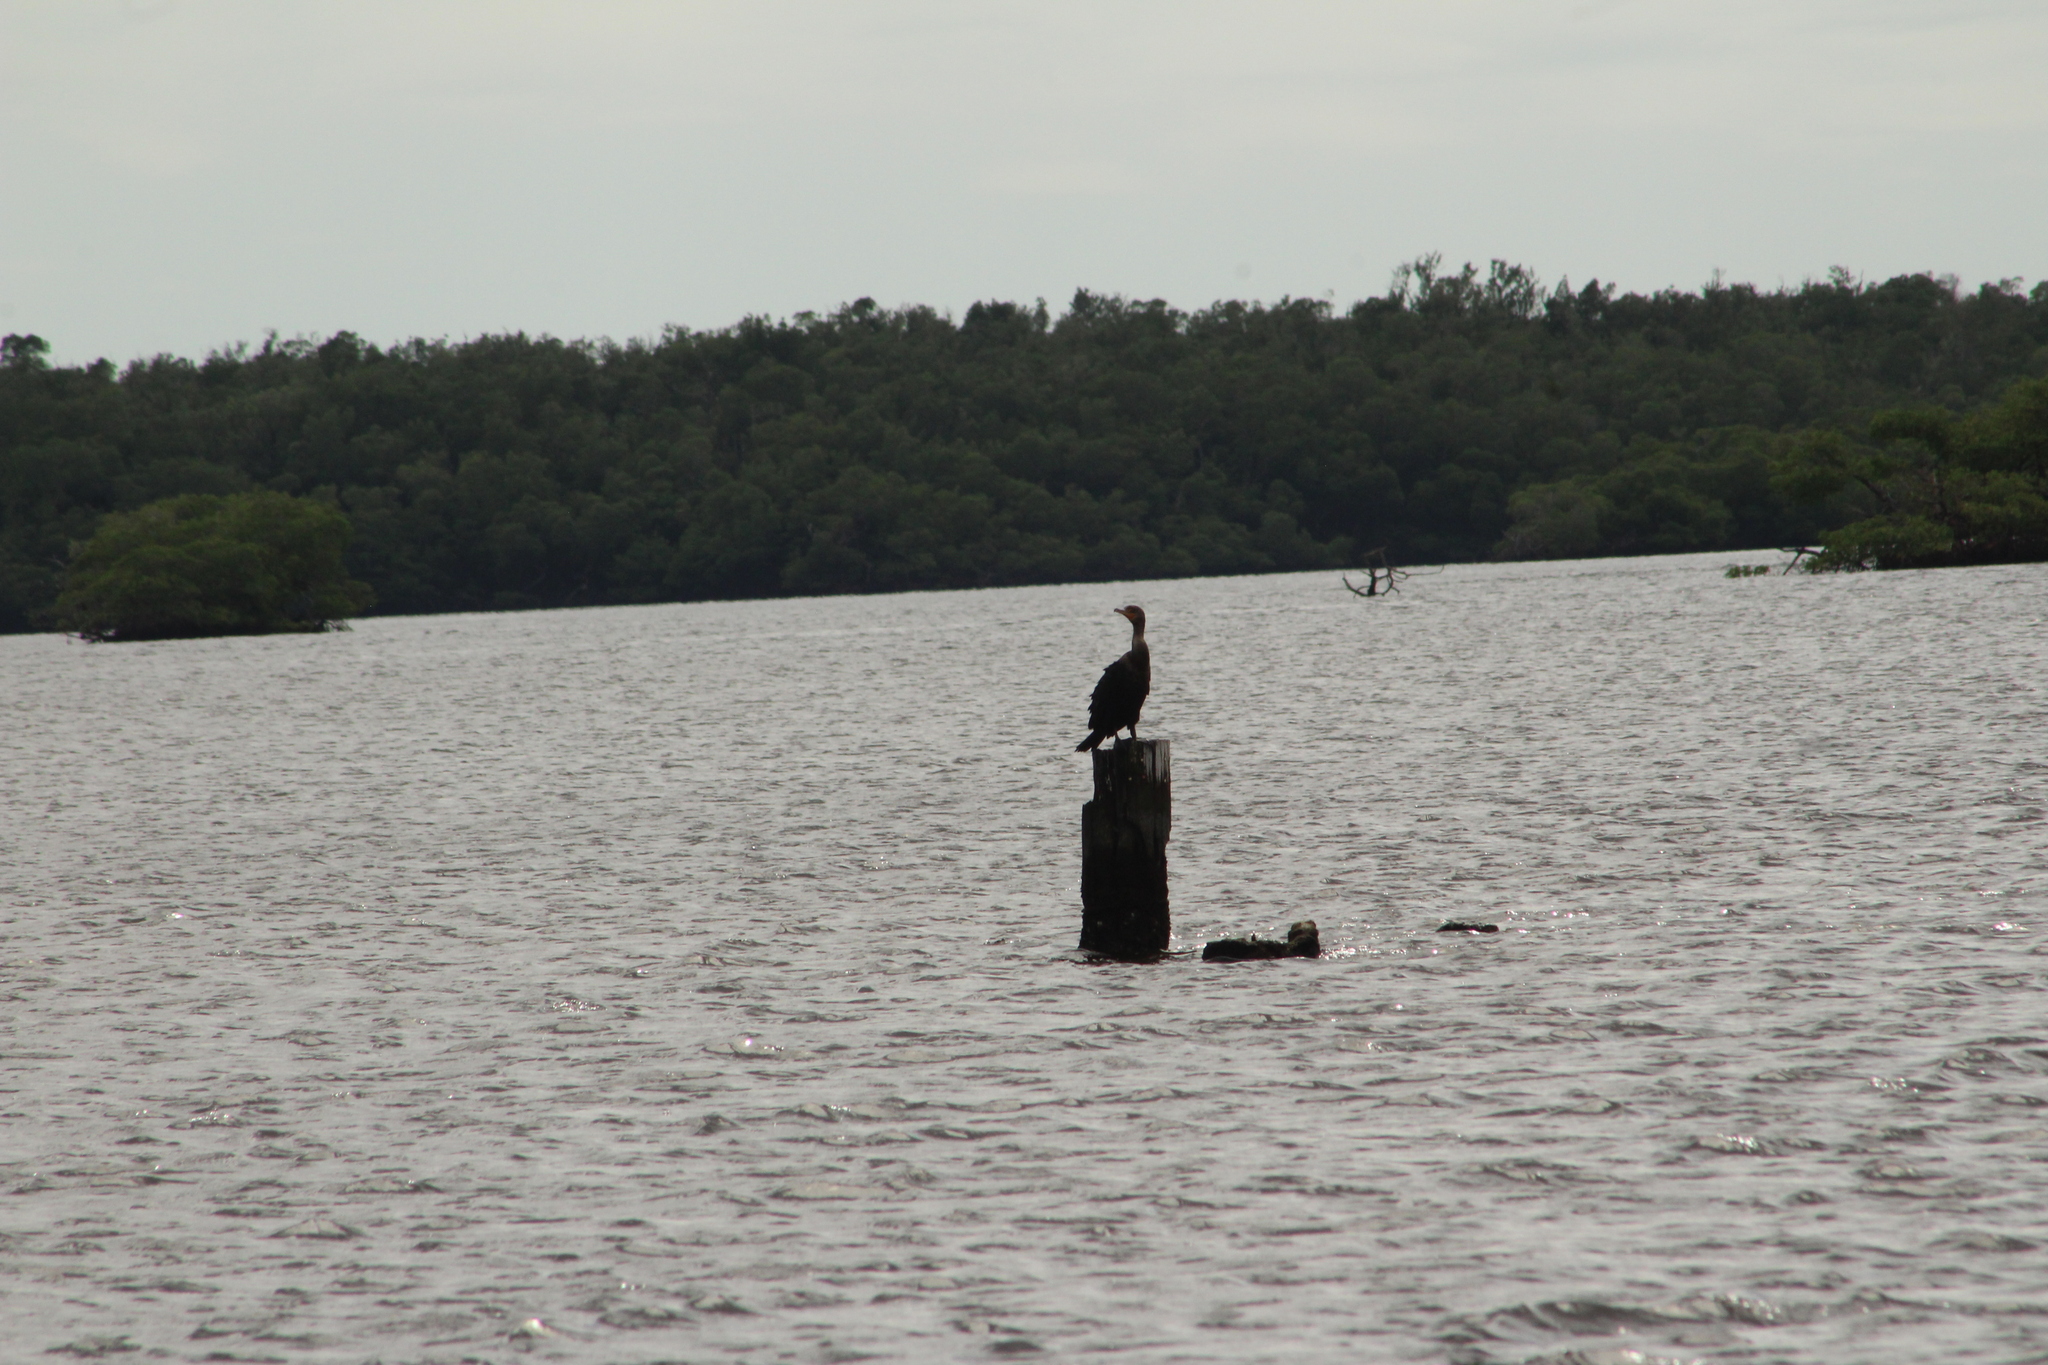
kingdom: Animalia
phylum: Chordata
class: Aves
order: Suliformes
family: Phalacrocoracidae
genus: Phalacrocorax
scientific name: Phalacrocorax auritus
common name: Double-crested cormorant
